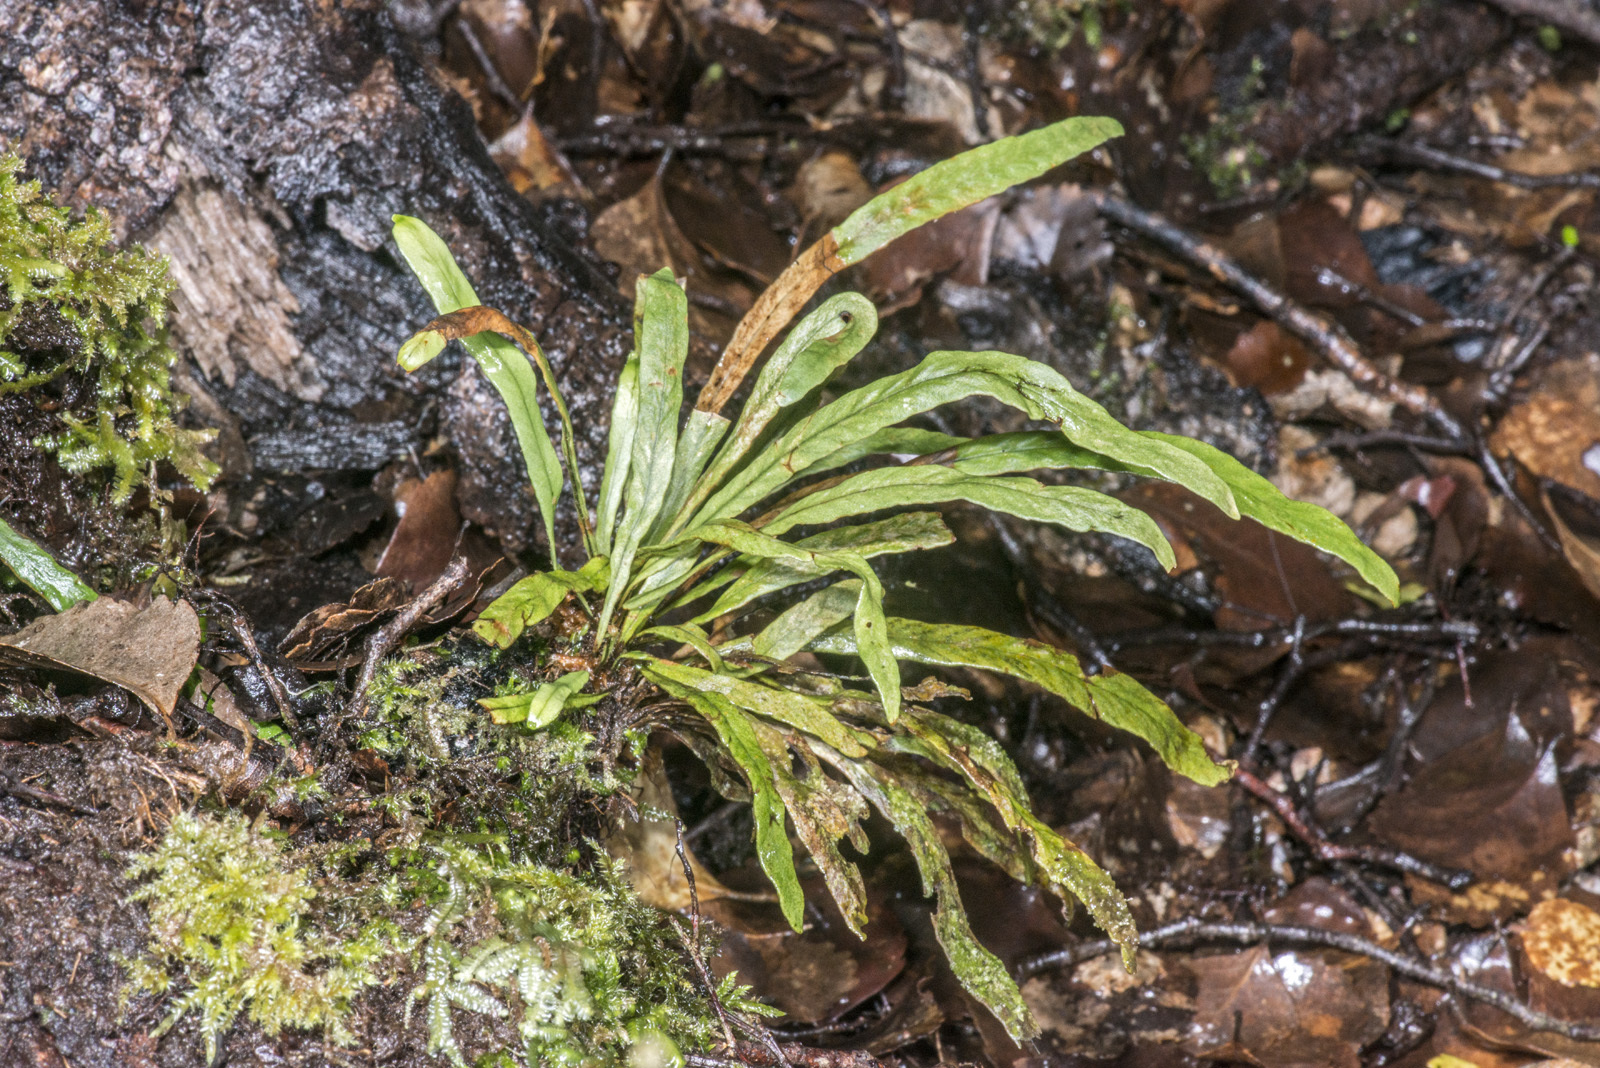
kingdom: Plantae
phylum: Tracheophyta
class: Polypodiopsida
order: Polypodiales
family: Polypodiaceae
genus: Notogrammitis
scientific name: Notogrammitis billardierei
